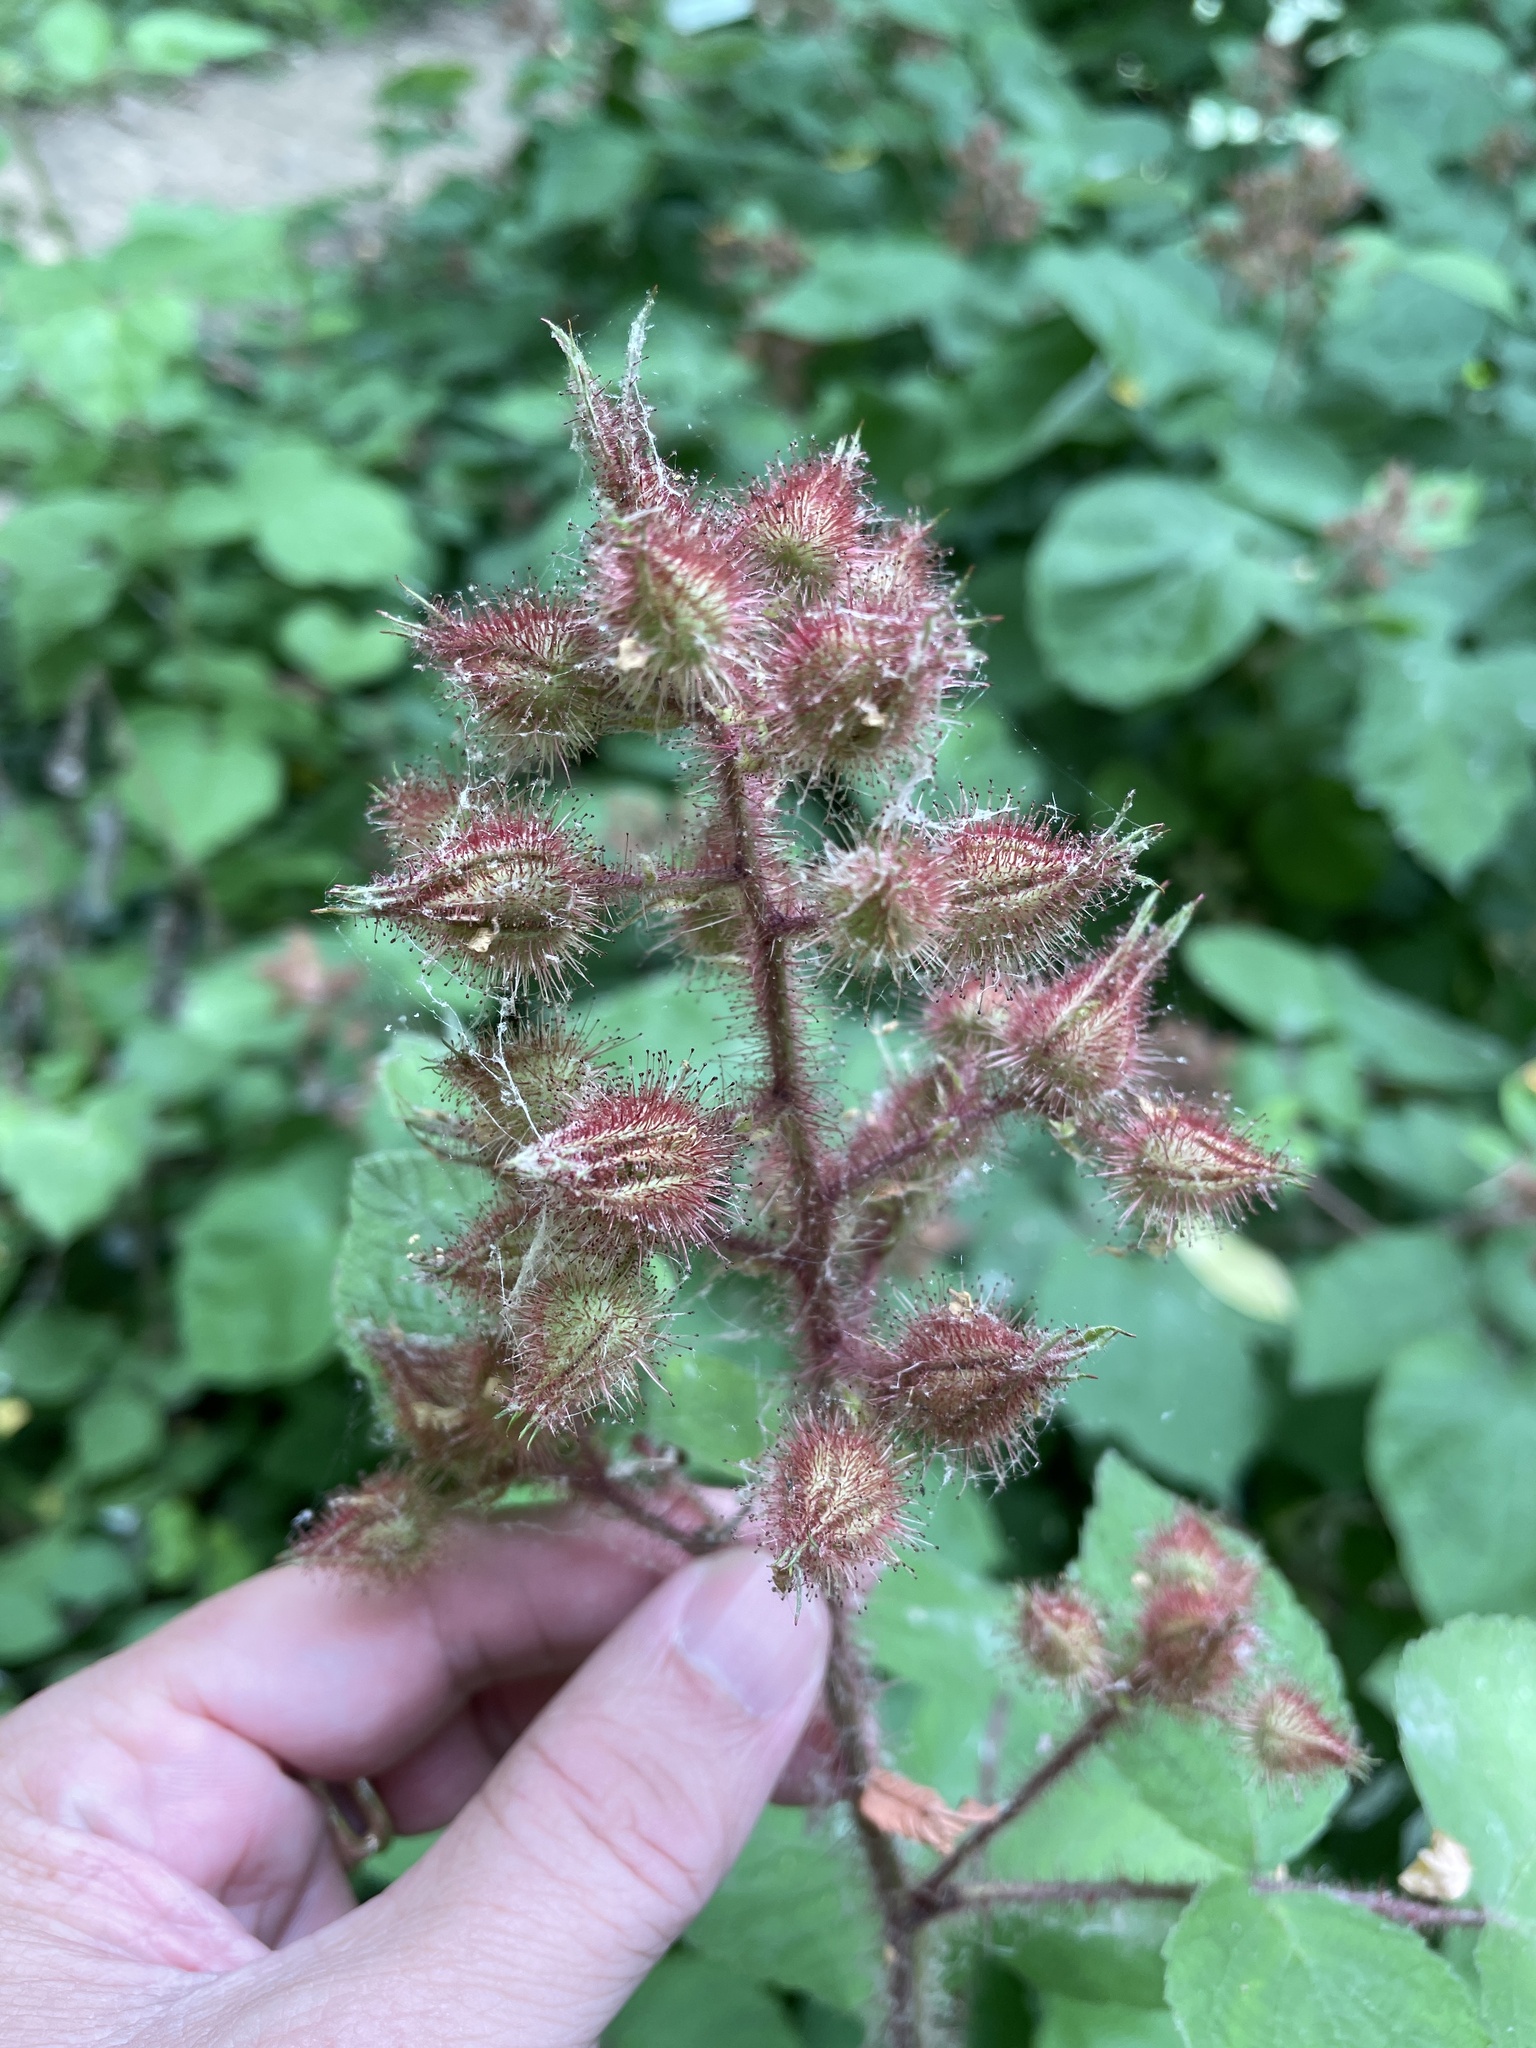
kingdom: Plantae
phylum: Tracheophyta
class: Magnoliopsida
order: Rosales
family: Rosaceae
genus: Rubus
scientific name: Rubus phoenicolasius
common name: Japanese wineberry
